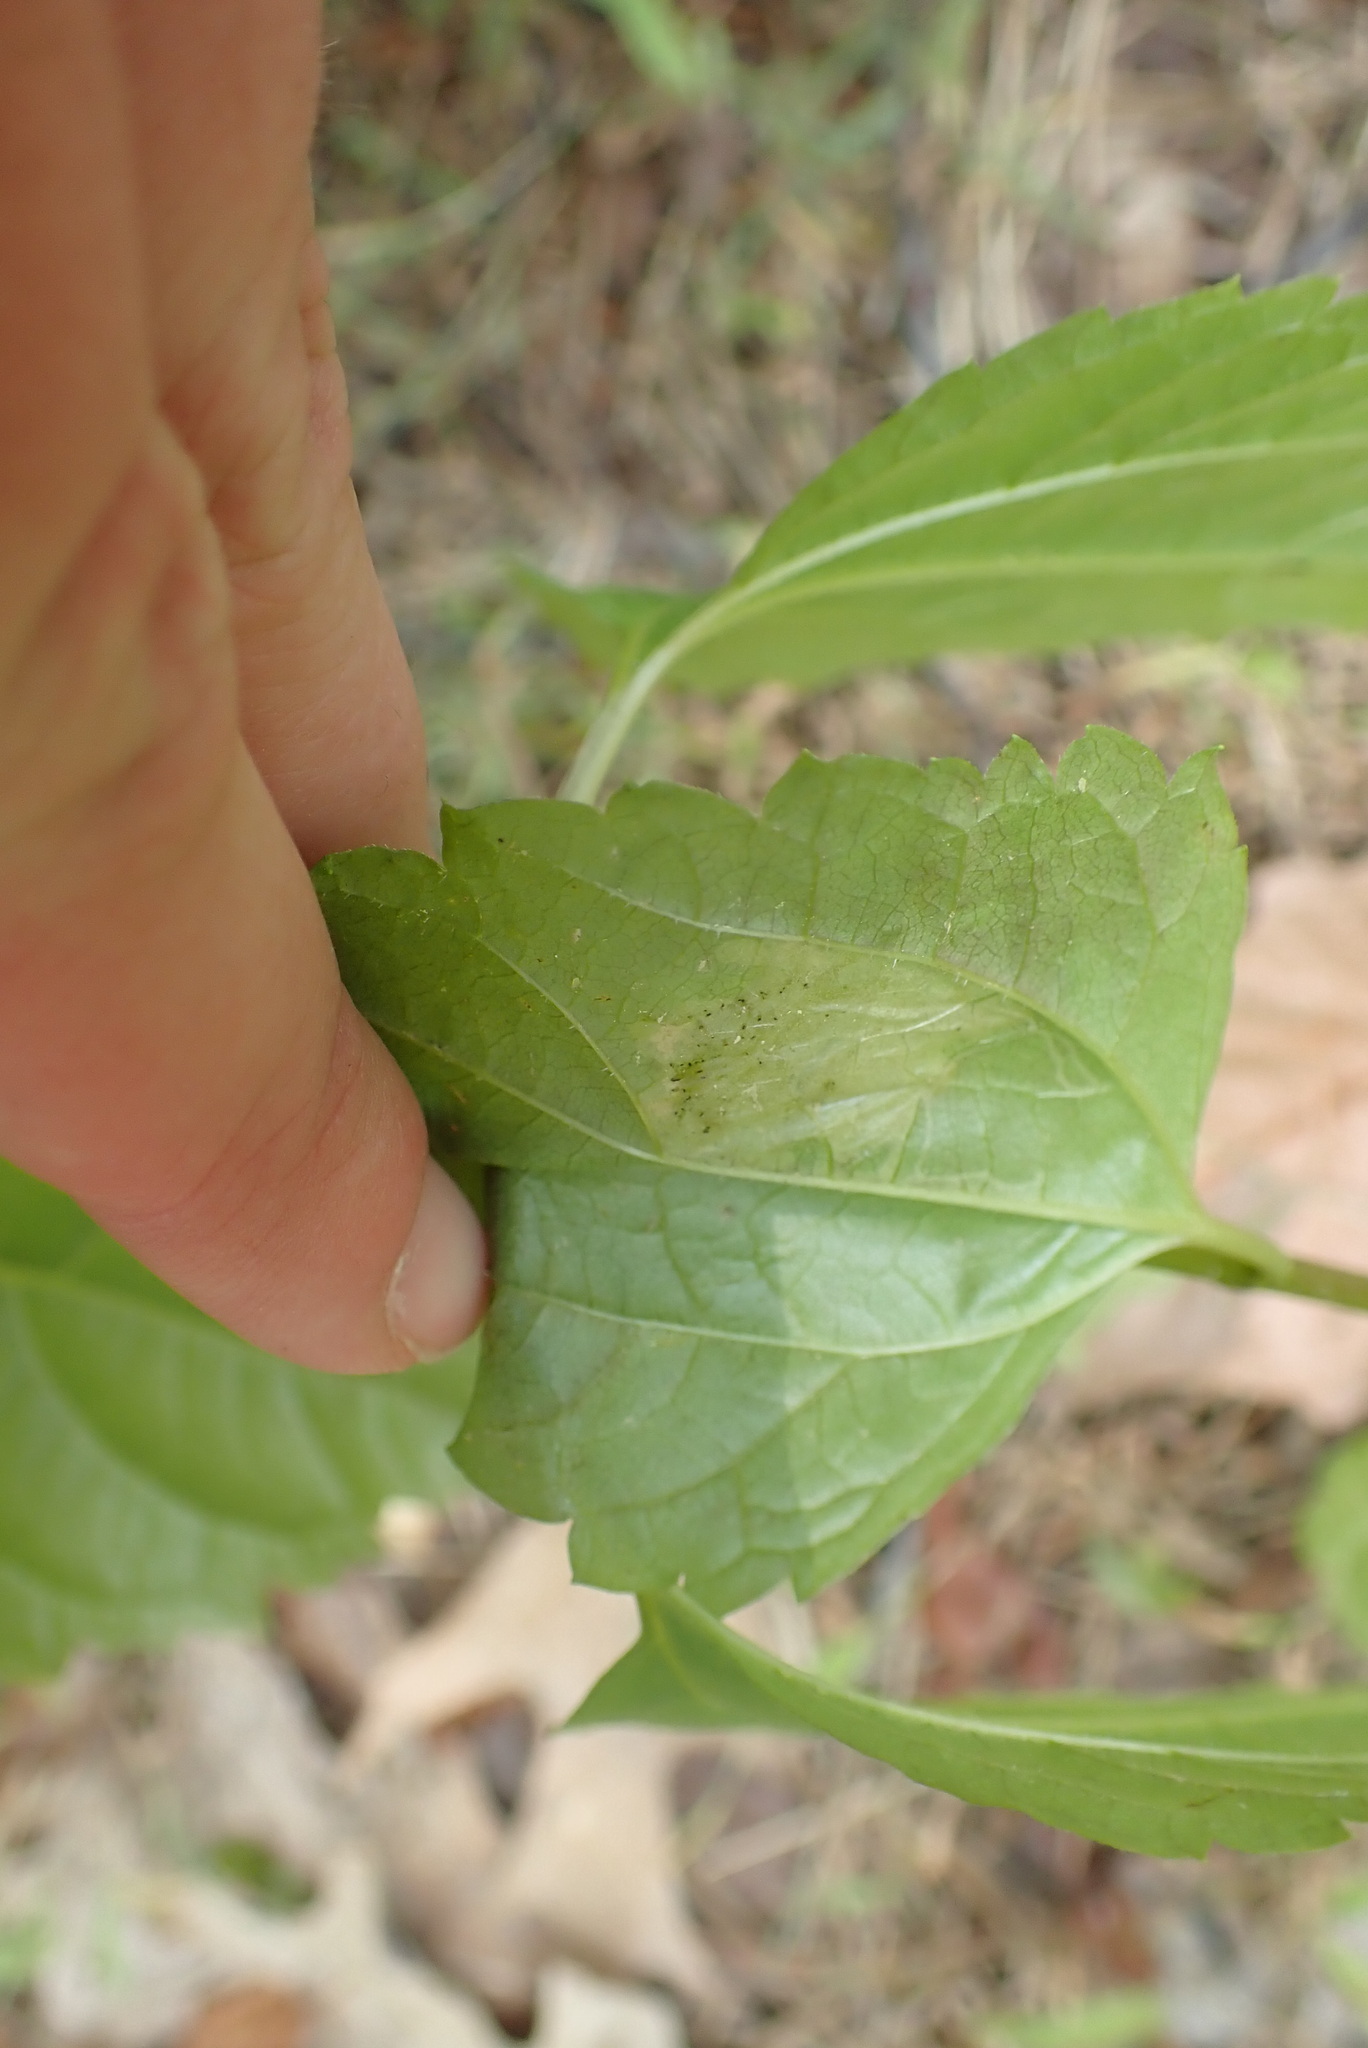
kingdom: Animalia
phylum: Arthropoda
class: Insecta
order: Lepidoptera
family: Gracillariidae
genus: Leucospilapteryx
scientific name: Leucospilapteryx venustella
